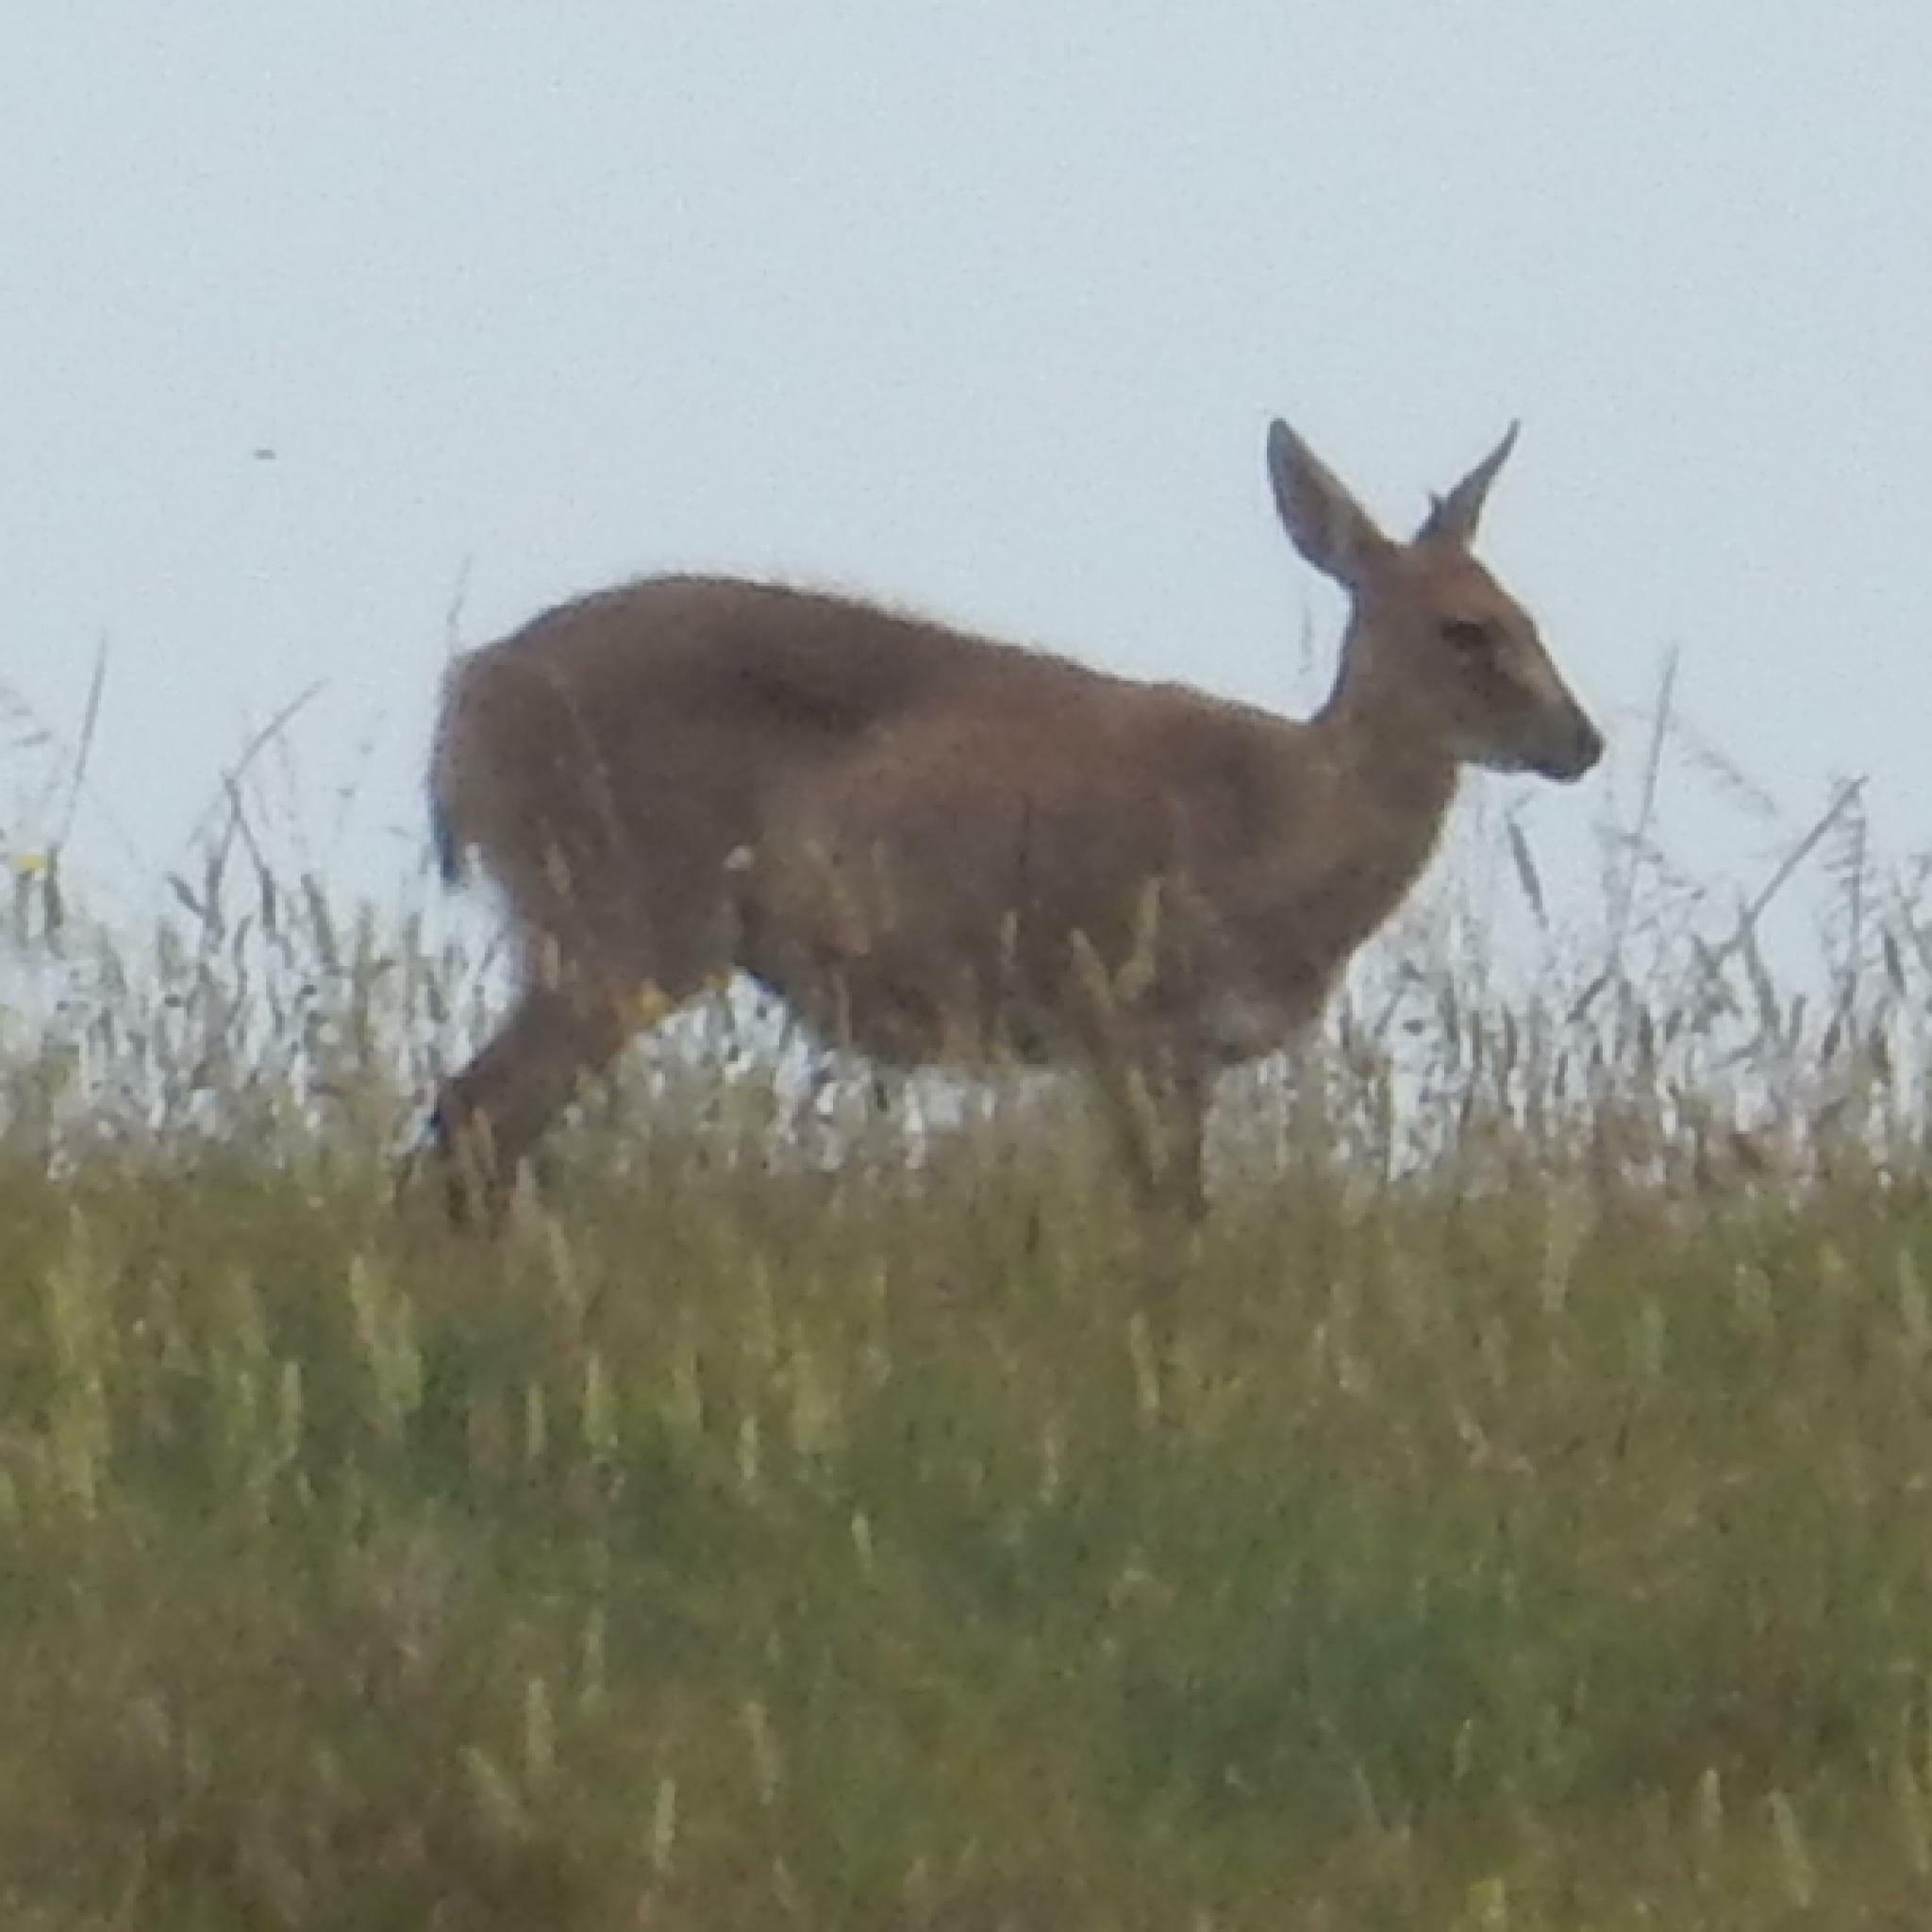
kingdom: Animalia
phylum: Chordata
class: Mammalia
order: Artiodactyla
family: Bovidae
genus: Sylvicapra
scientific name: Sylvicapra grimmia
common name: Bush duiker
